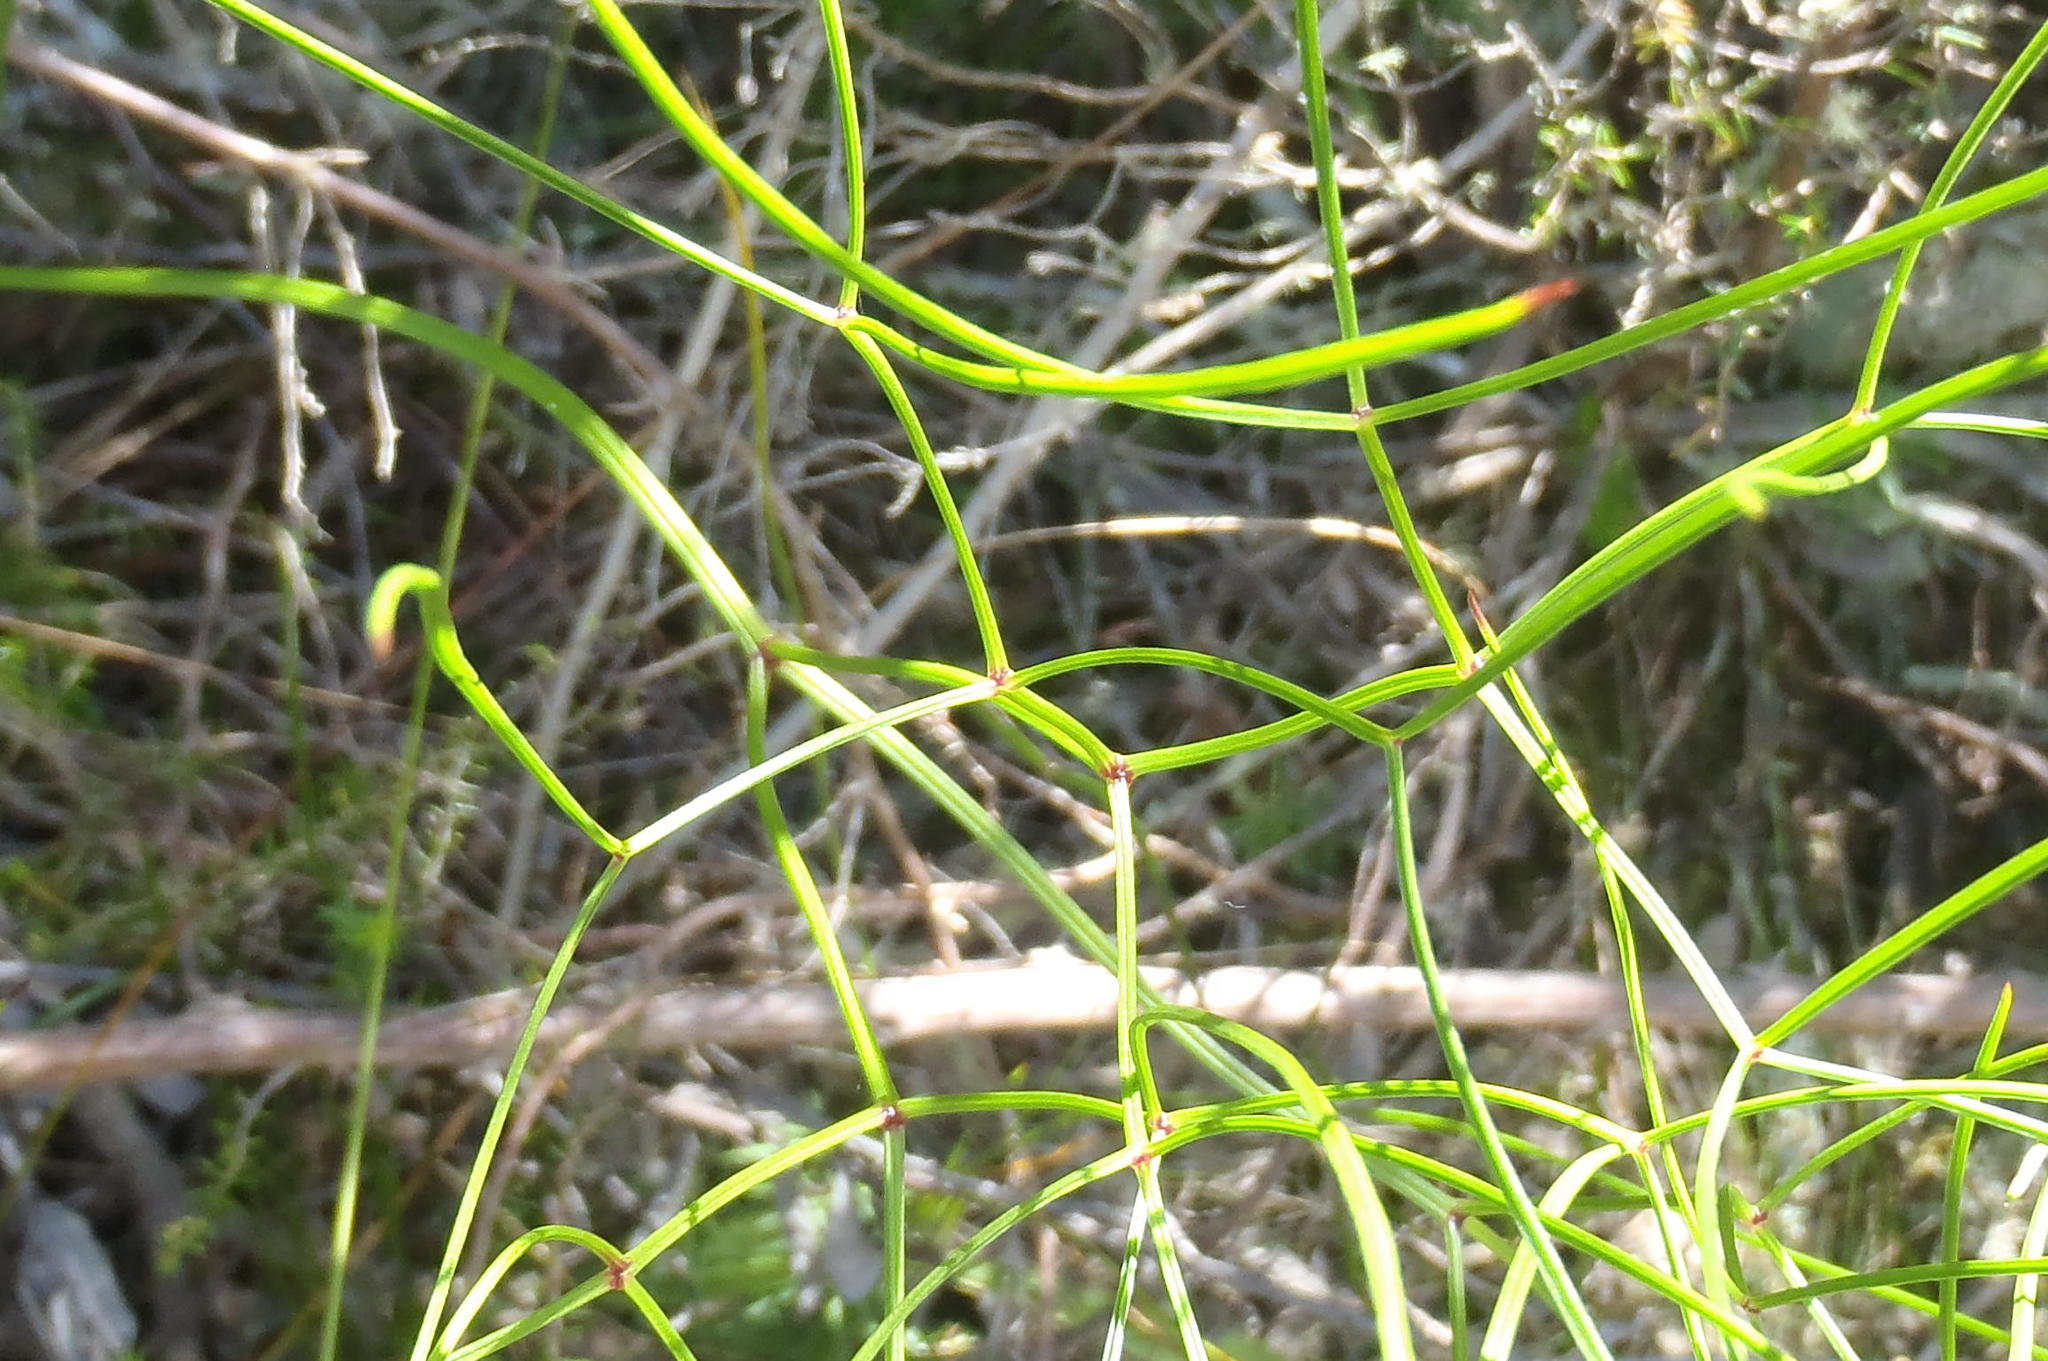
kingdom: Plantae
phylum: Tracheophyta
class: Magnoliopsida
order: Apiales
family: Apiaceae
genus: Nanobubon
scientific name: Nanobubon hypogaeum
